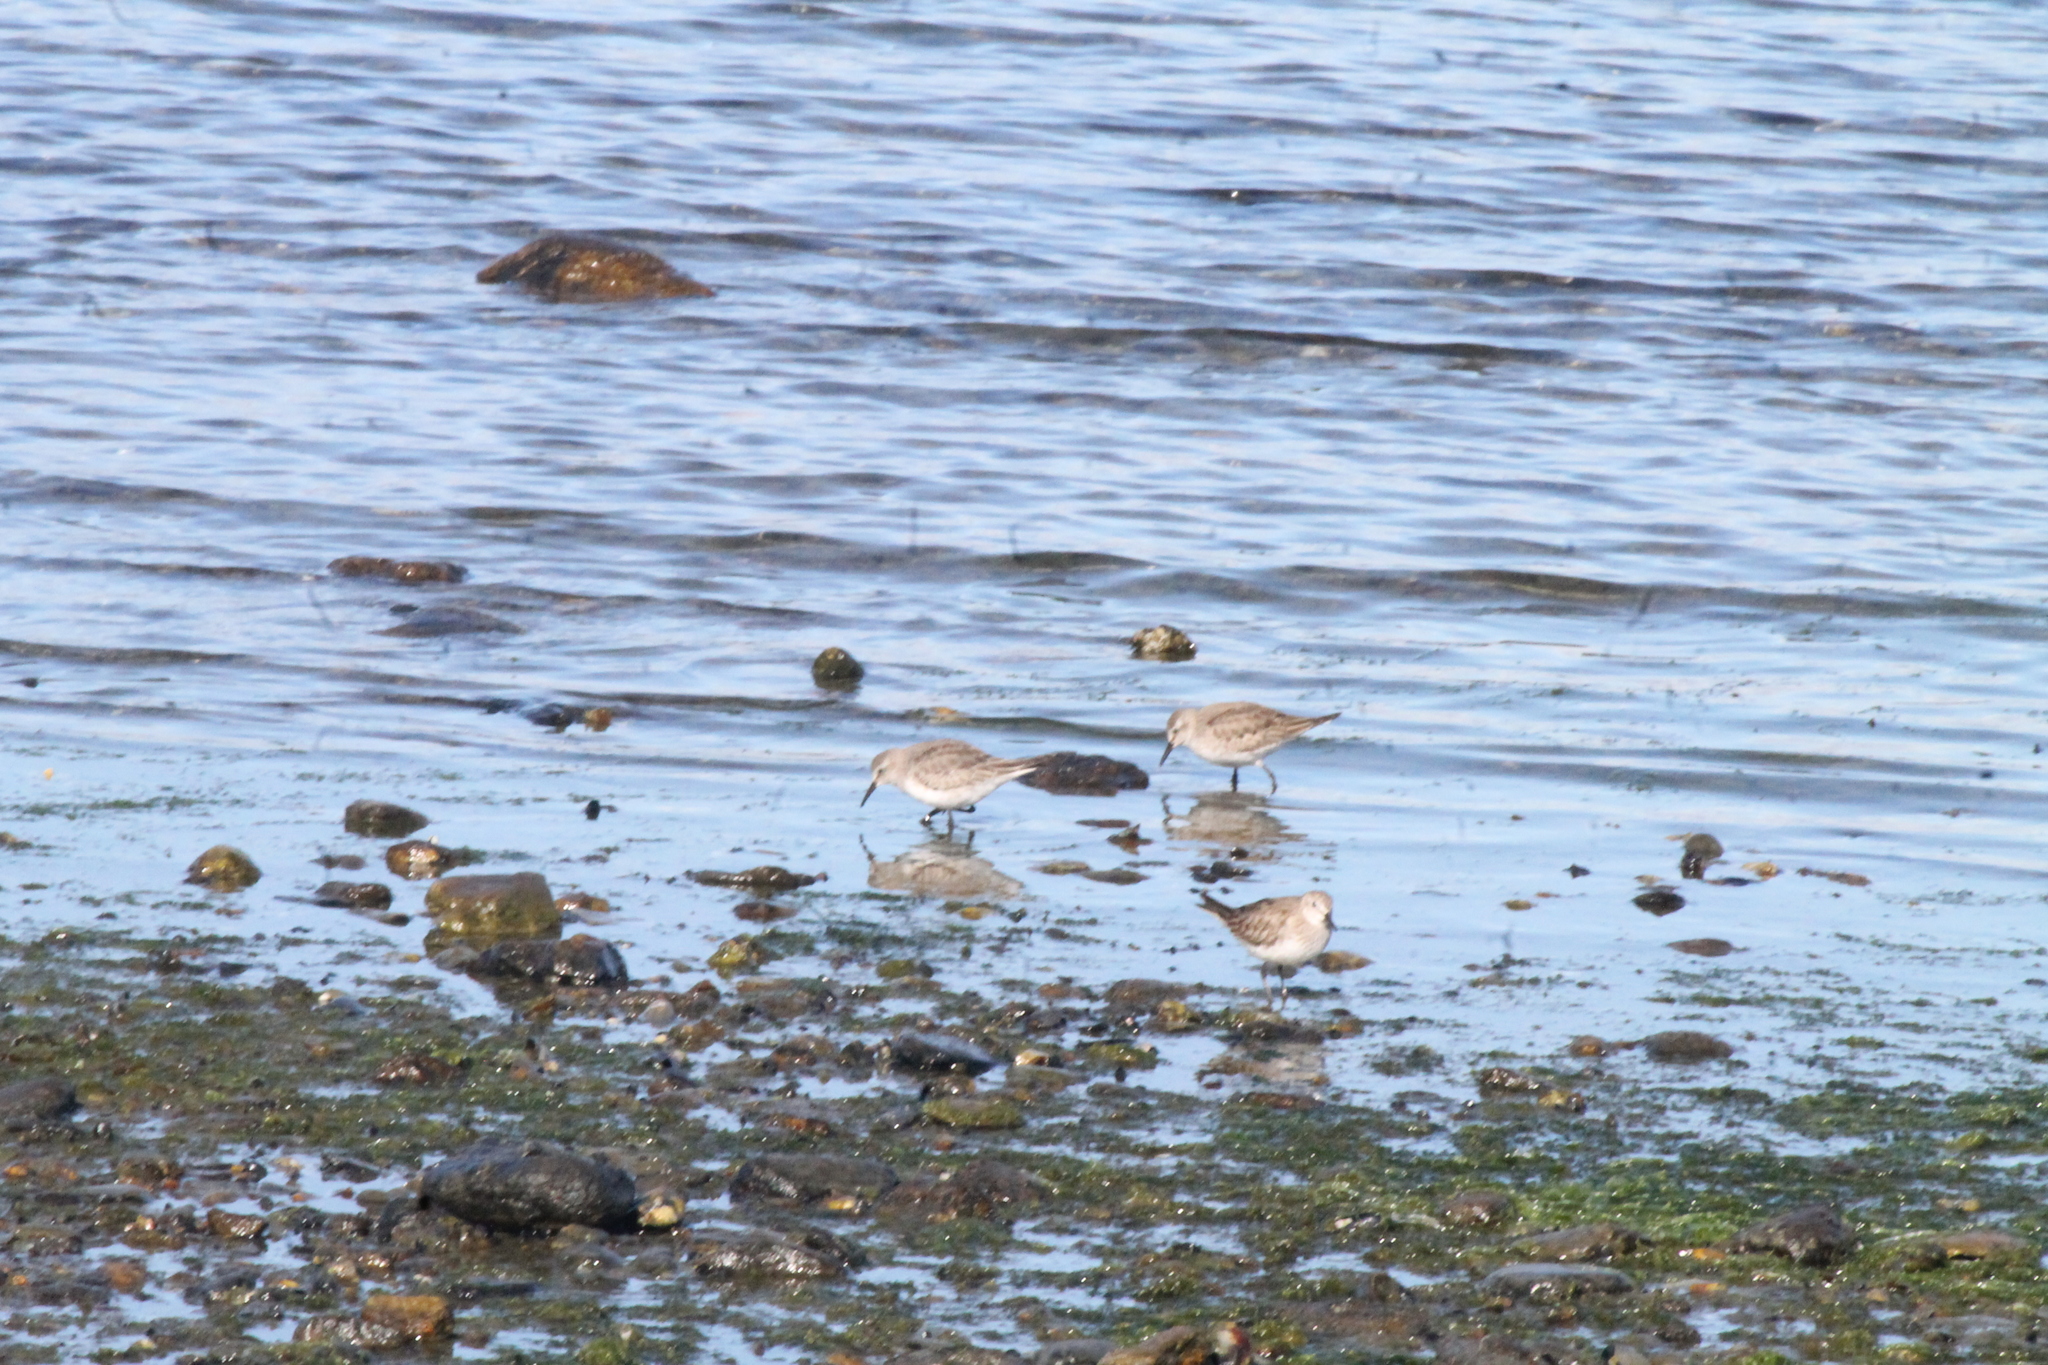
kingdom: Animalia
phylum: Chordata
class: Aves
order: Charadriiformes
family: Scolopacidae
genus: Calidris
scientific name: Calidris fuscicollis
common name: White-rumped sandpiper
